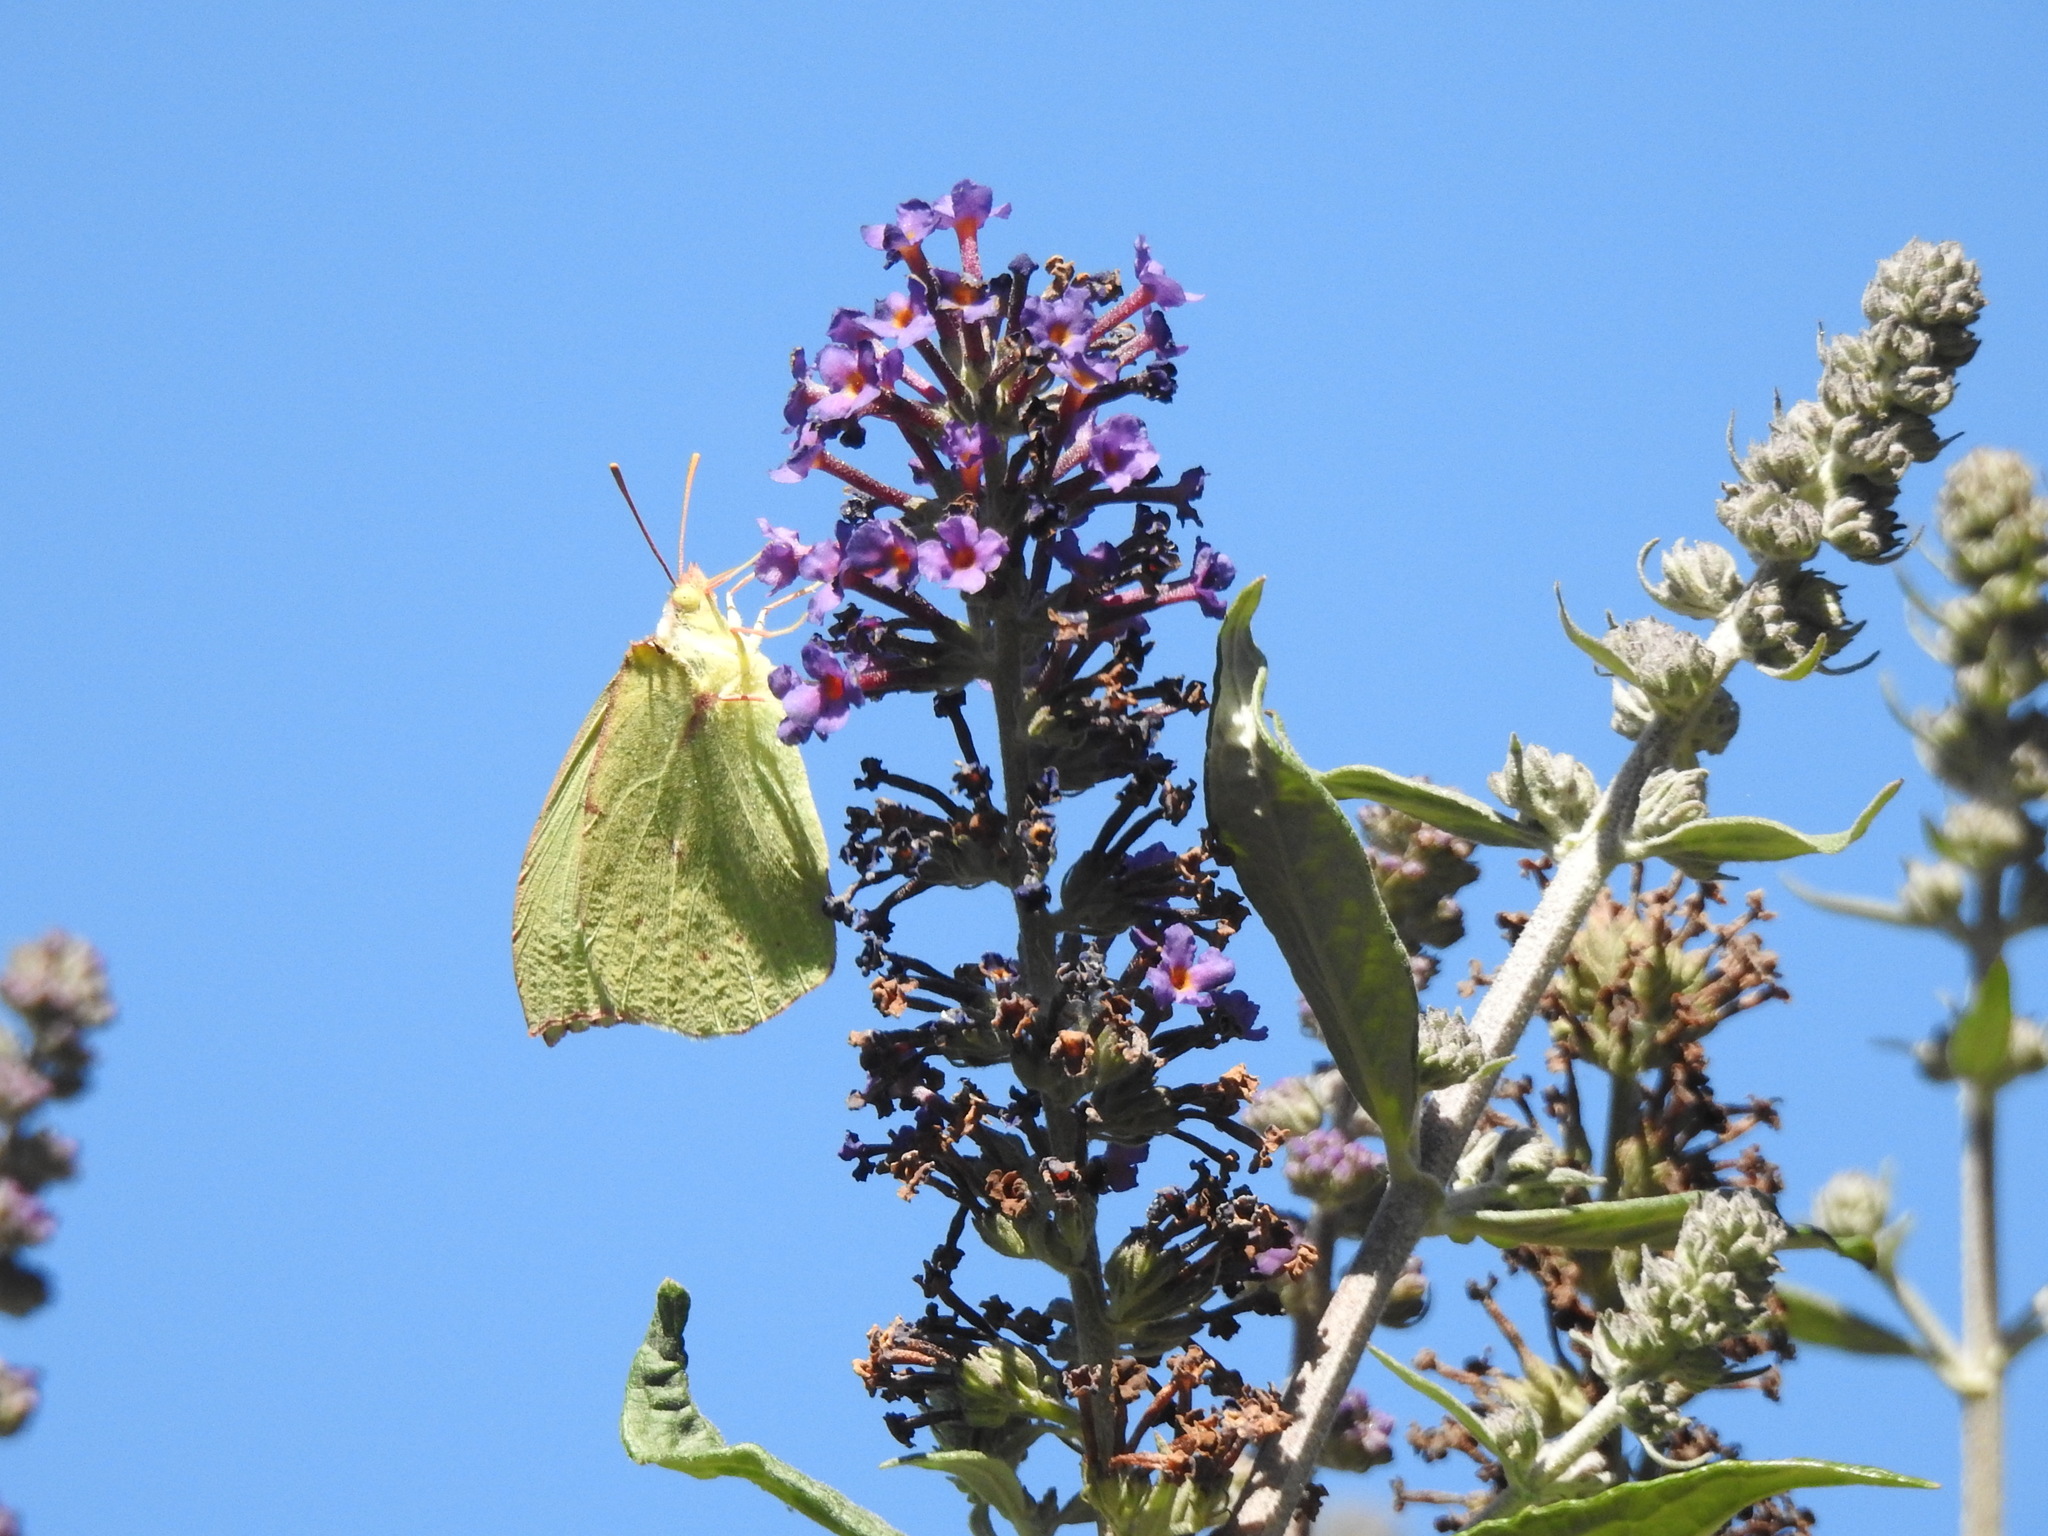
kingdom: Animalia
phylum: Arthropoda
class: Insecta
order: Lepidoptera
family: Pieridae
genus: Zerene
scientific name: Zerene eurydice
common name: California dogface
